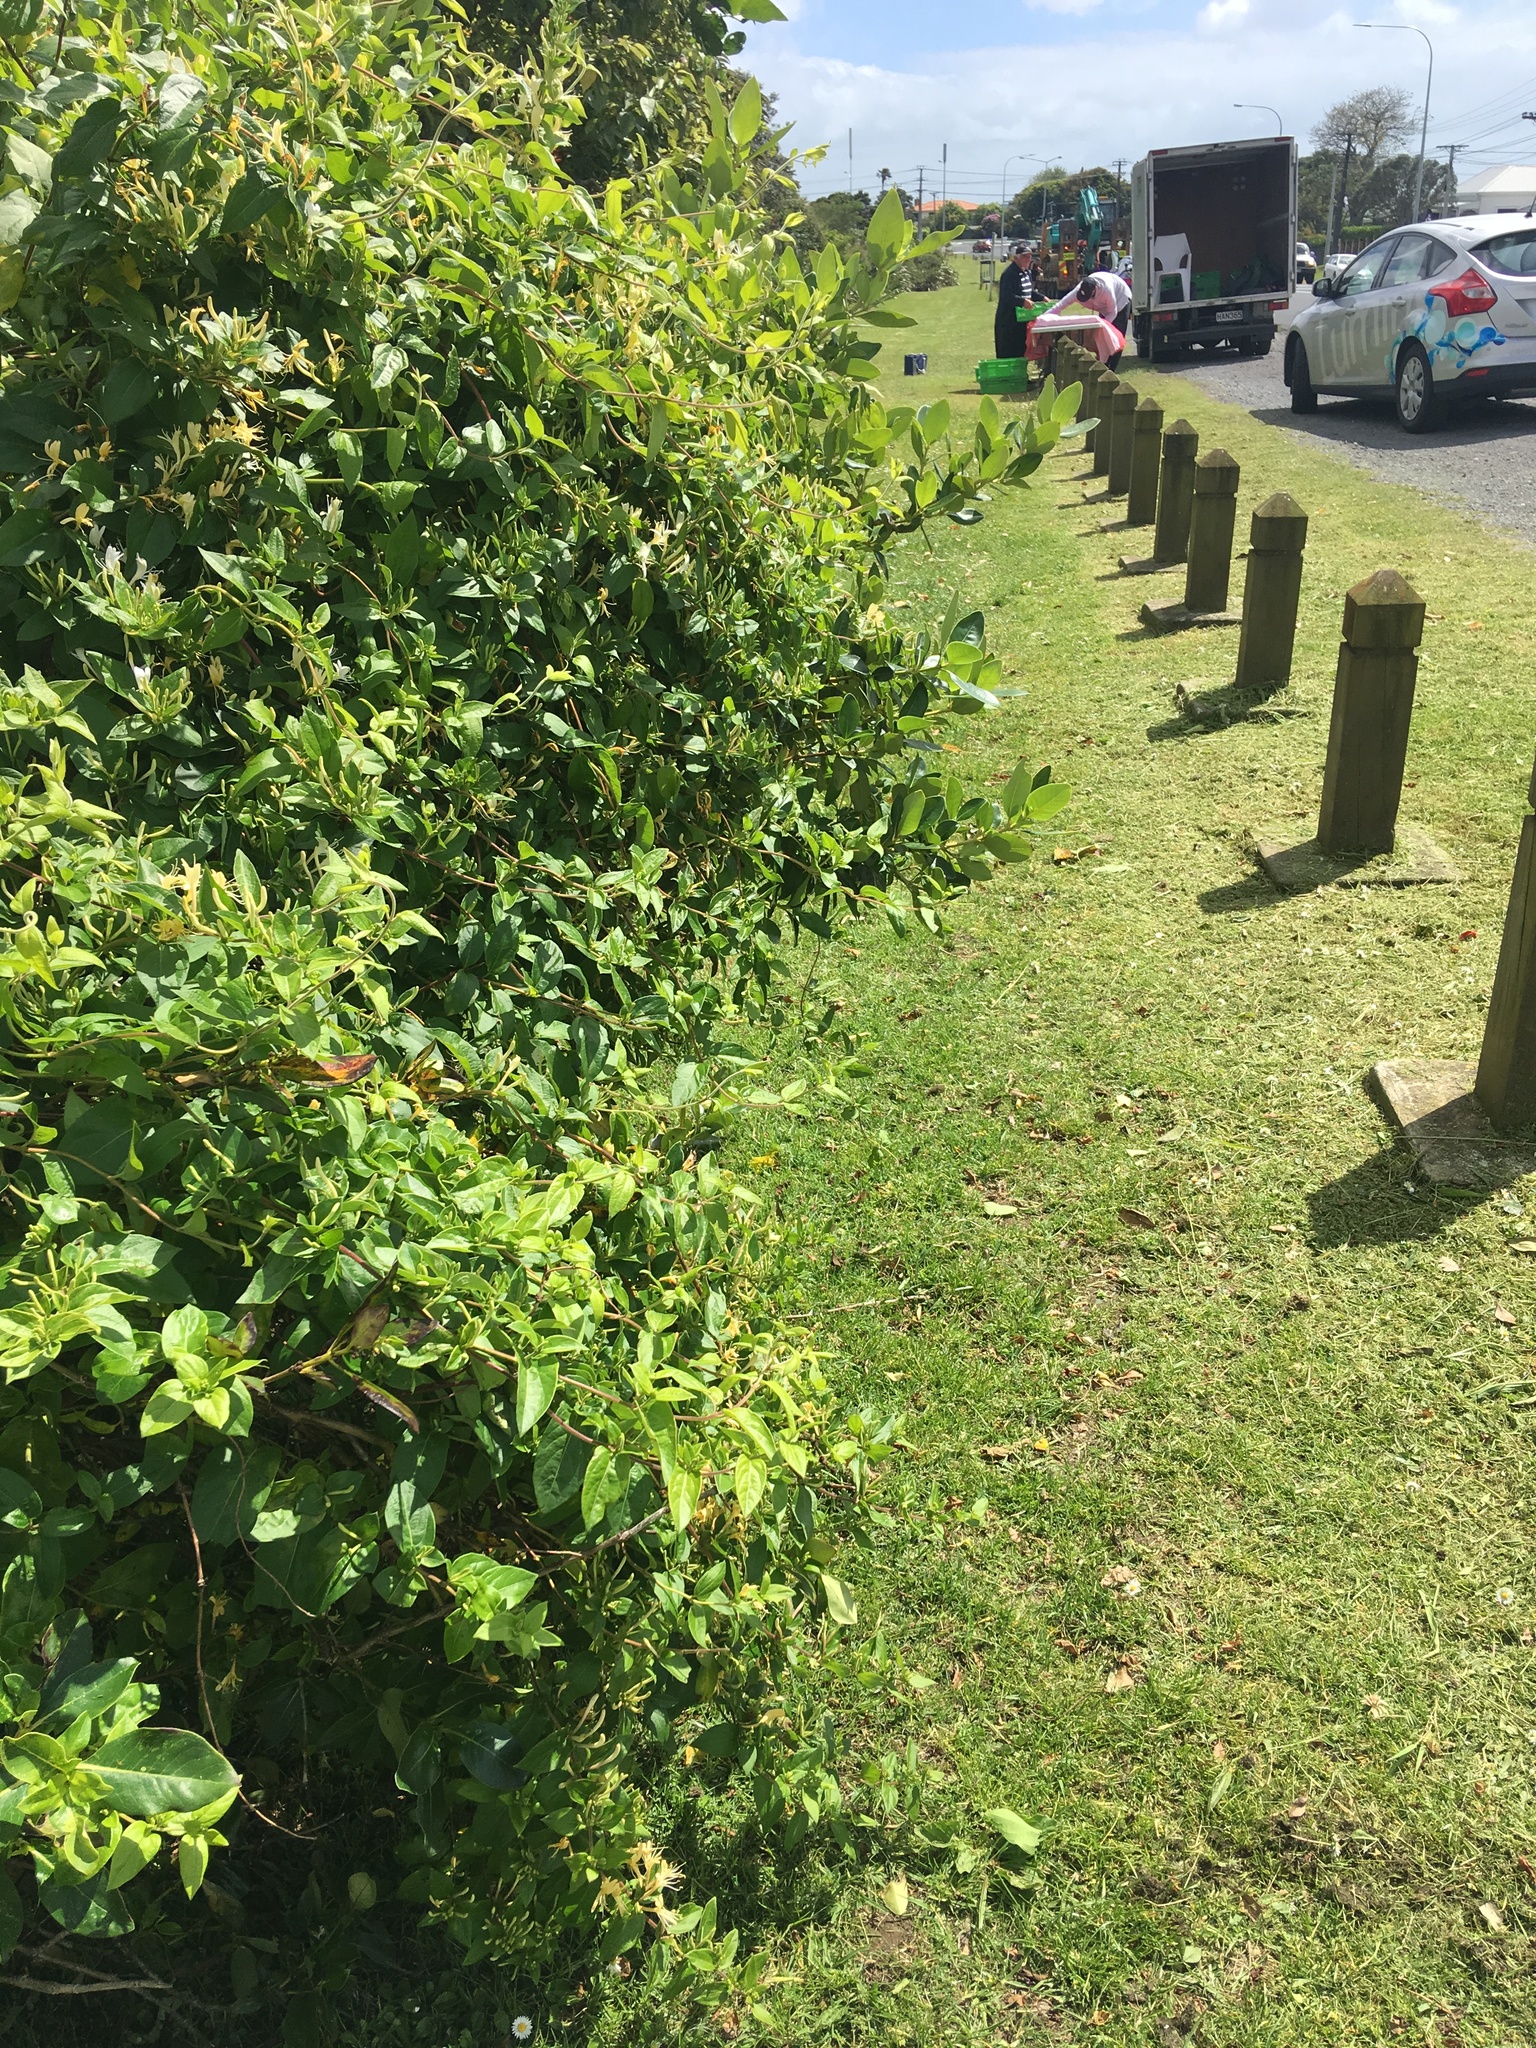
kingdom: Plantae
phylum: Tracheophyta
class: Magnoliopsida
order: Dipsacales
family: Caprifoliaceae
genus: Lonicera
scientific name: Lonicera japonica
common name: Japanese honeysuckle
